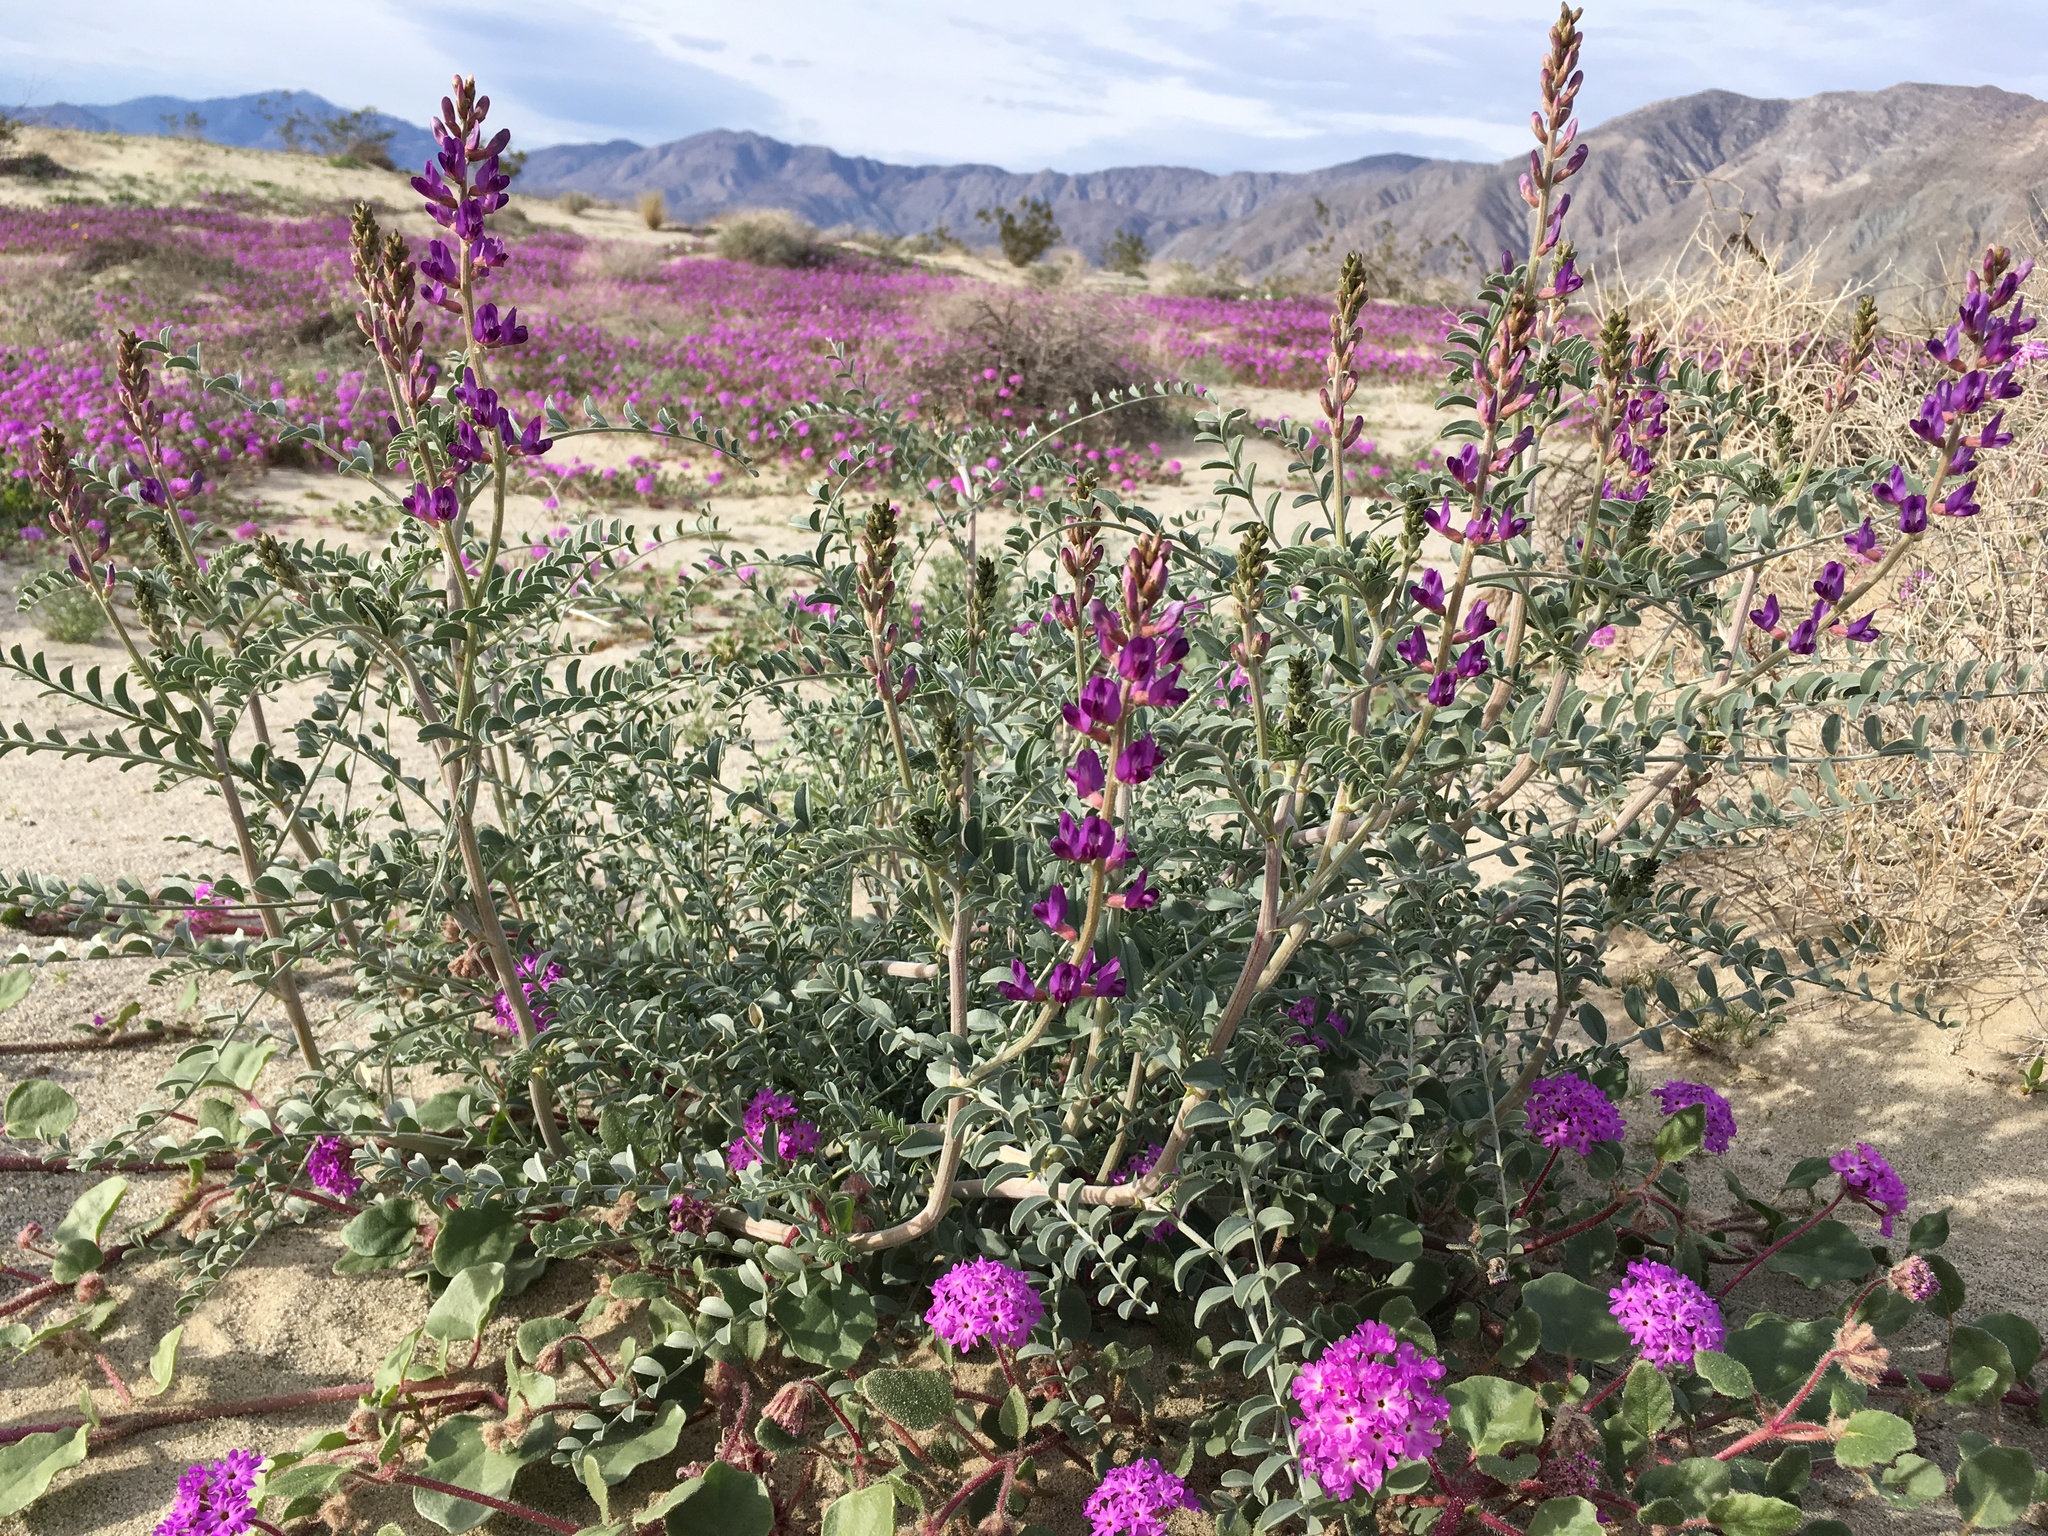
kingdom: Plantae
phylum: Tracheophyta
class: Magnoliopsida
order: Fabales
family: Fabaceae
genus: Astragalus
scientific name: Astragalus lentiginosus
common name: Freckled milkvetch
